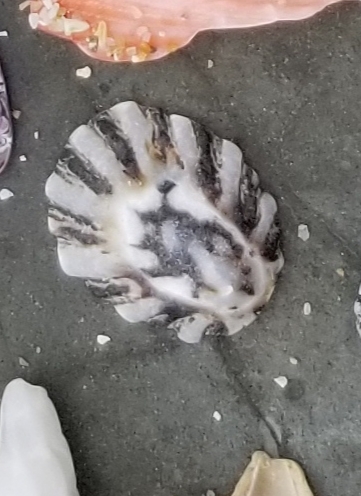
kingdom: Animalia
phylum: Mollusca
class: Gastropoda
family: Lottiidae
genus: Lottia
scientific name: Lottia scabra
